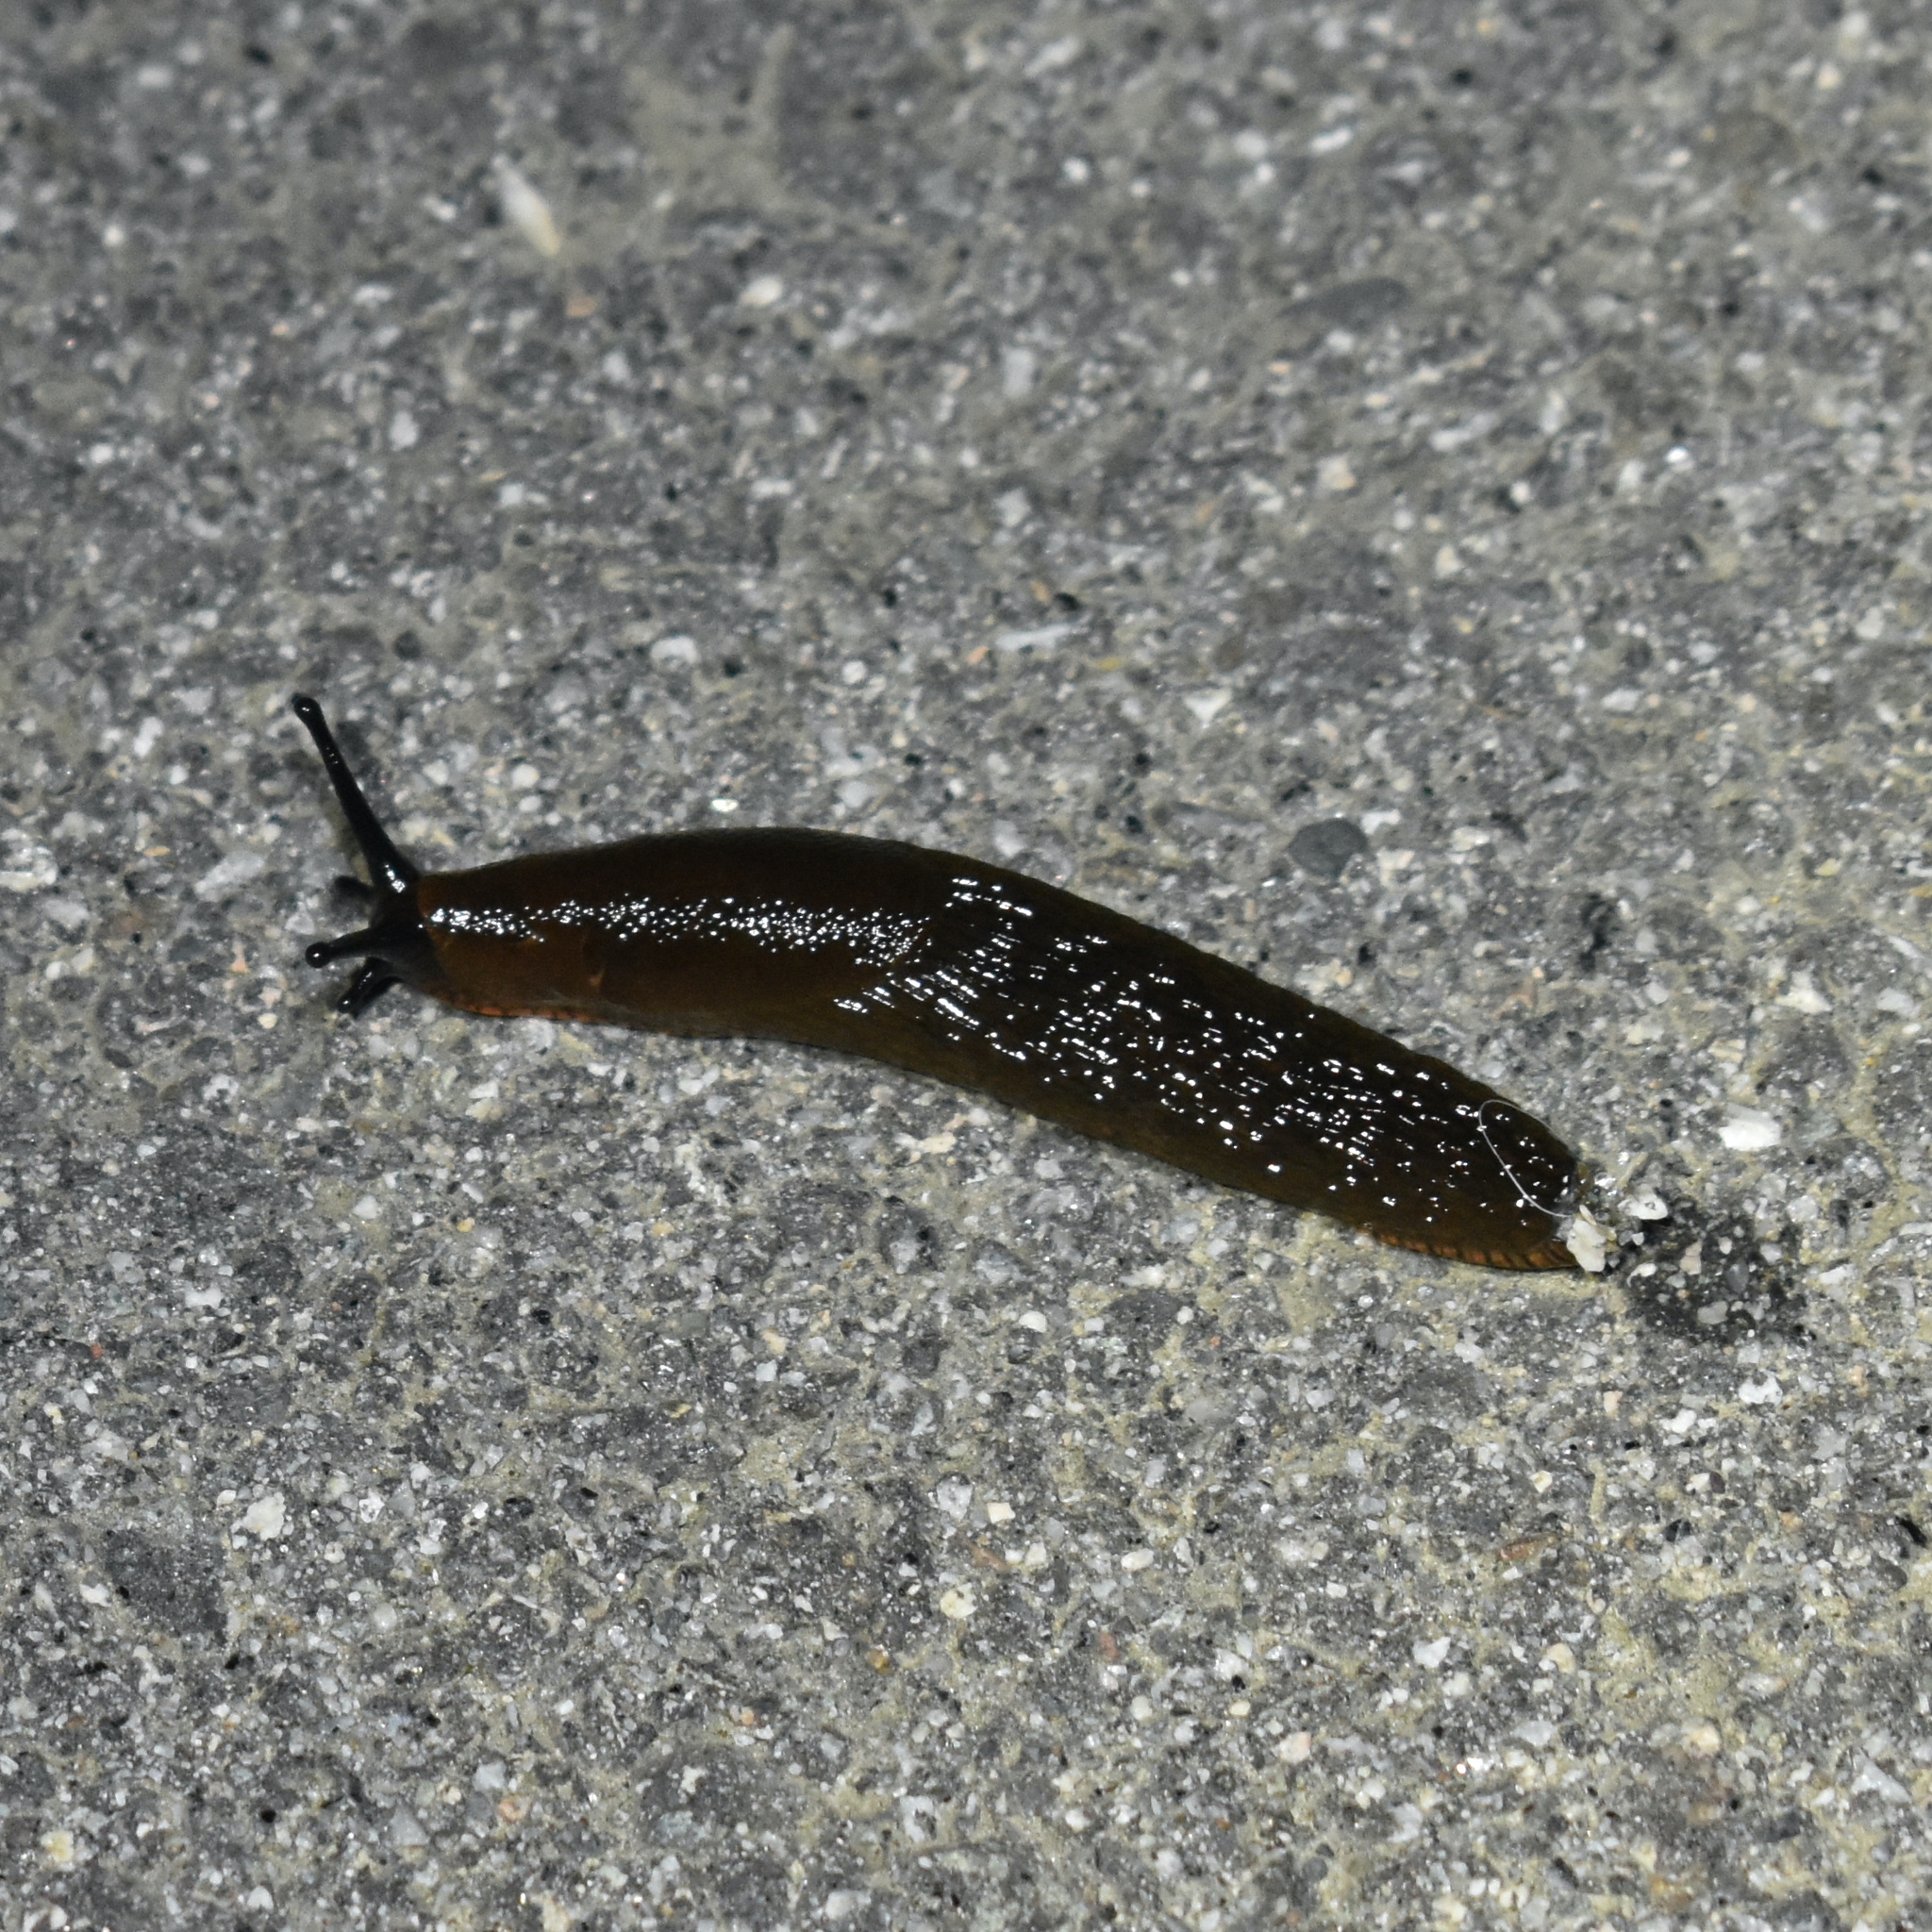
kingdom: Animalia
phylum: Mollusca
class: Gastropoda
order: Stylommatophora
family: Arionidae
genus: Arion
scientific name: Arion
